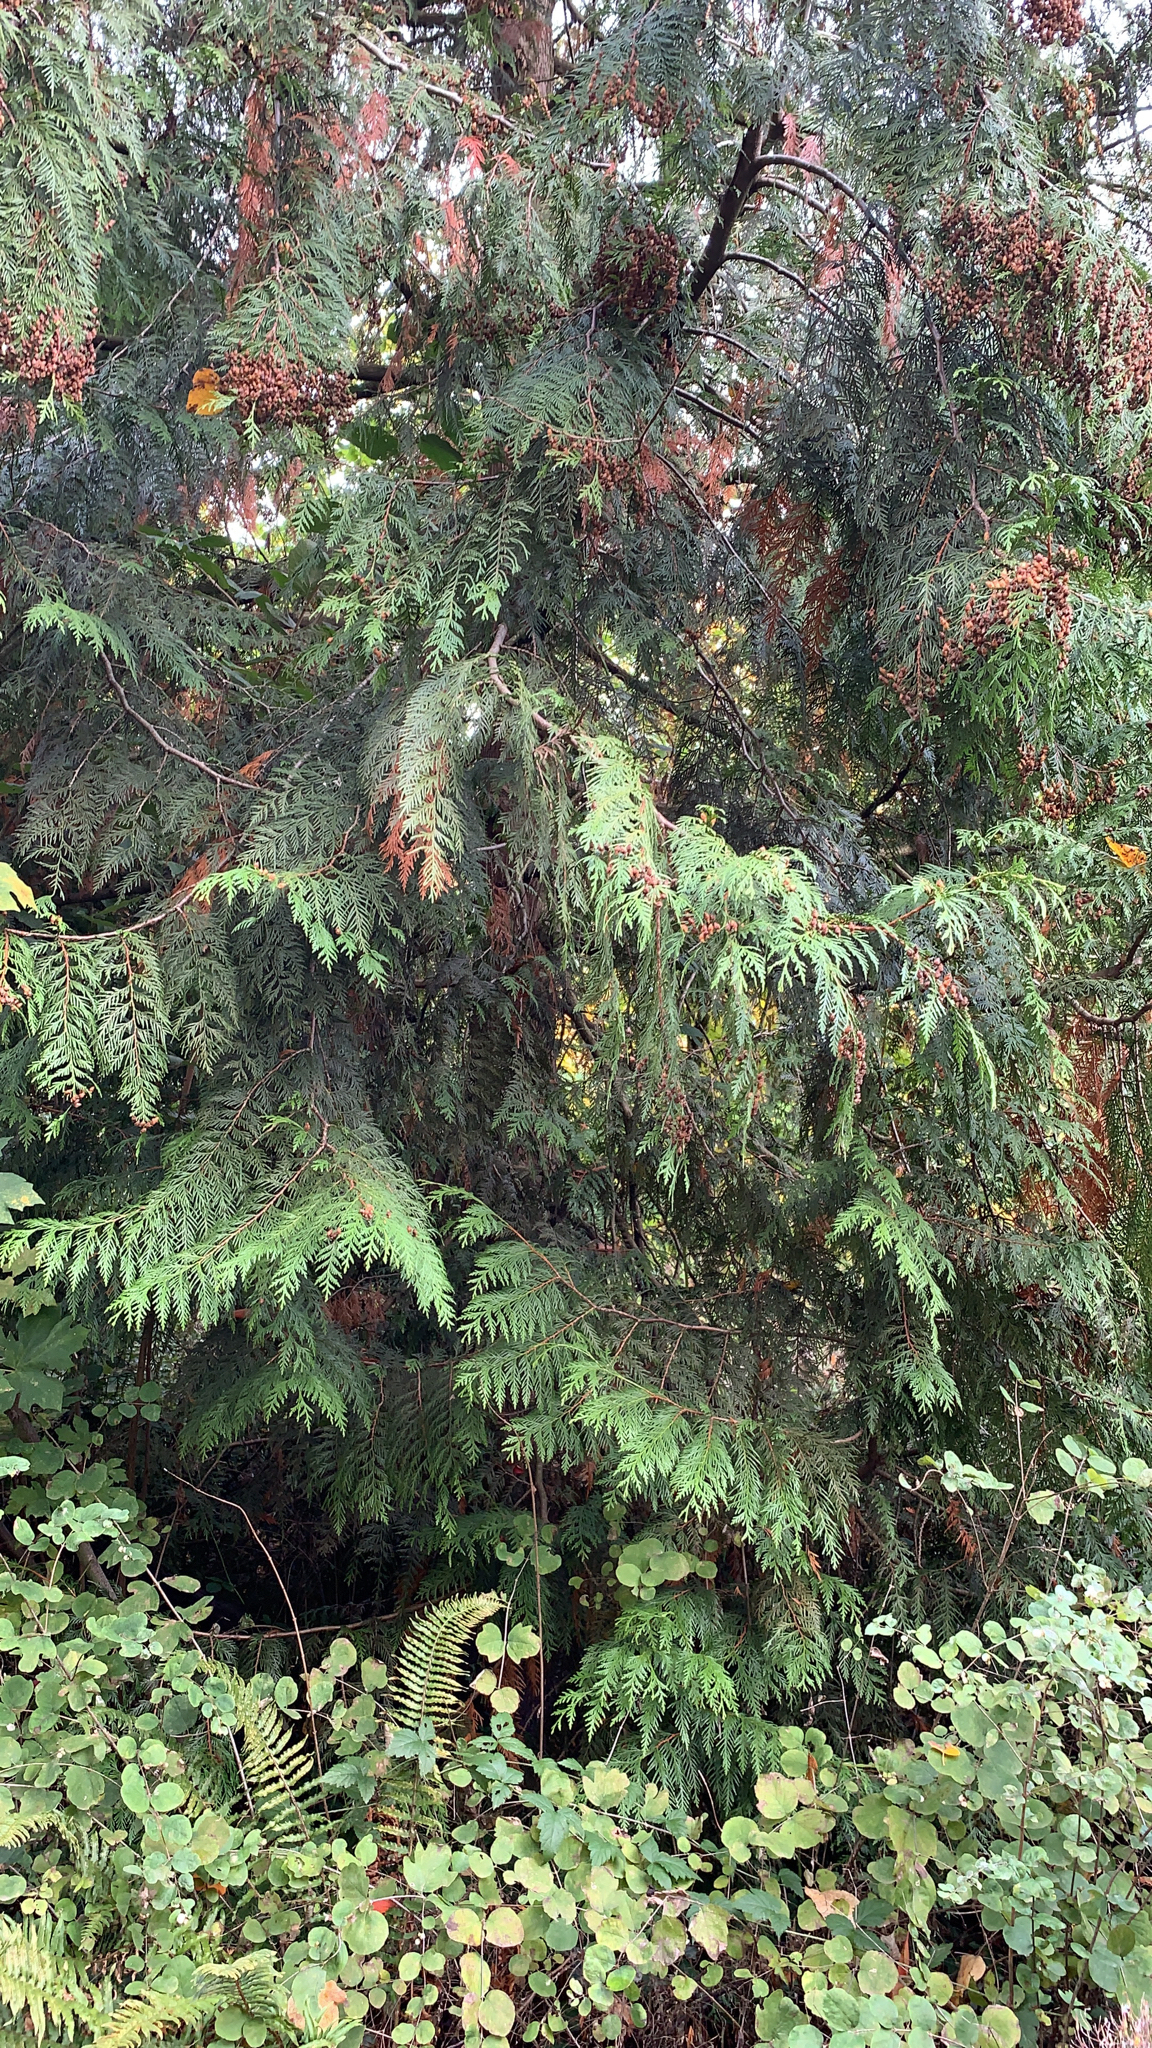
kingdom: Plantae
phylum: Tracheophyta
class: Pinopsida
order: Pinales
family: Cupressaceae
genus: Thuja
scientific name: Thuja plicata
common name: Western red-cedar
